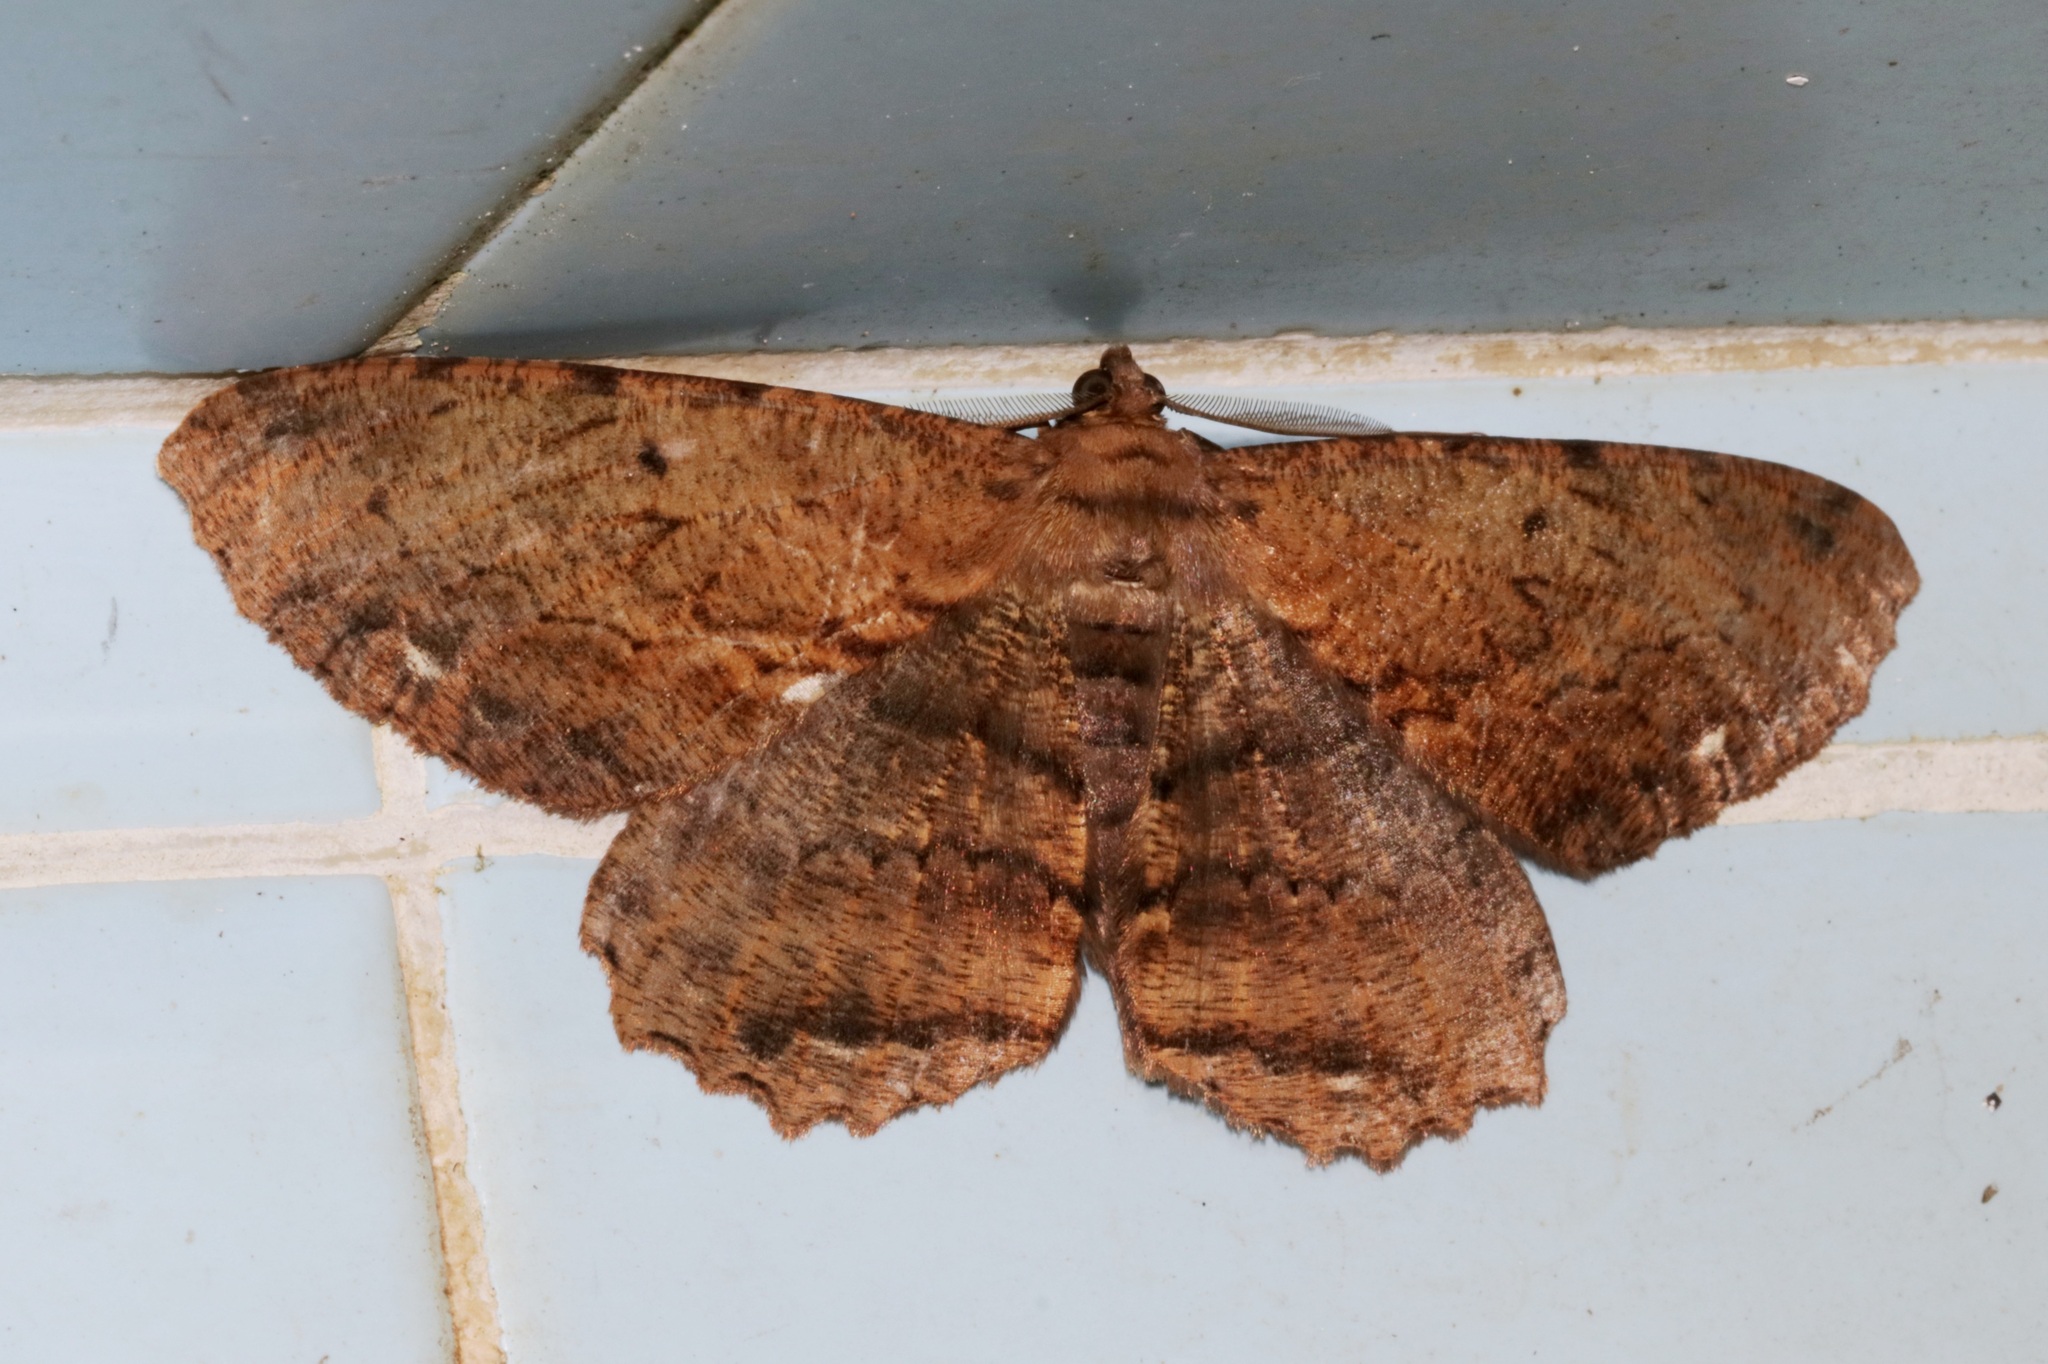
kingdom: Animalia
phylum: Arthropoda
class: Insecta
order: Lepidoptera
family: Geometridae
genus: Chorodna
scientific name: Chorodna creataria
